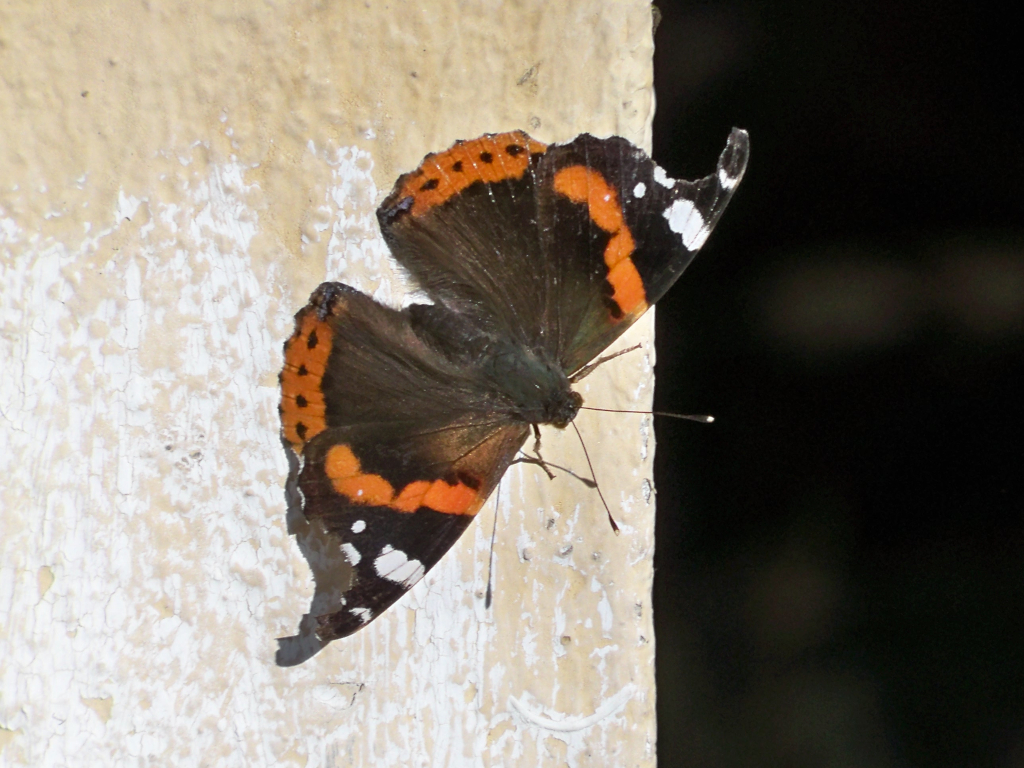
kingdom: Animalia
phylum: Arthropoda
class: Insecta
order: Lepidoptera
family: Nymphalidae
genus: Vanessa
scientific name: Vanessa atalanta
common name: Red admiral
